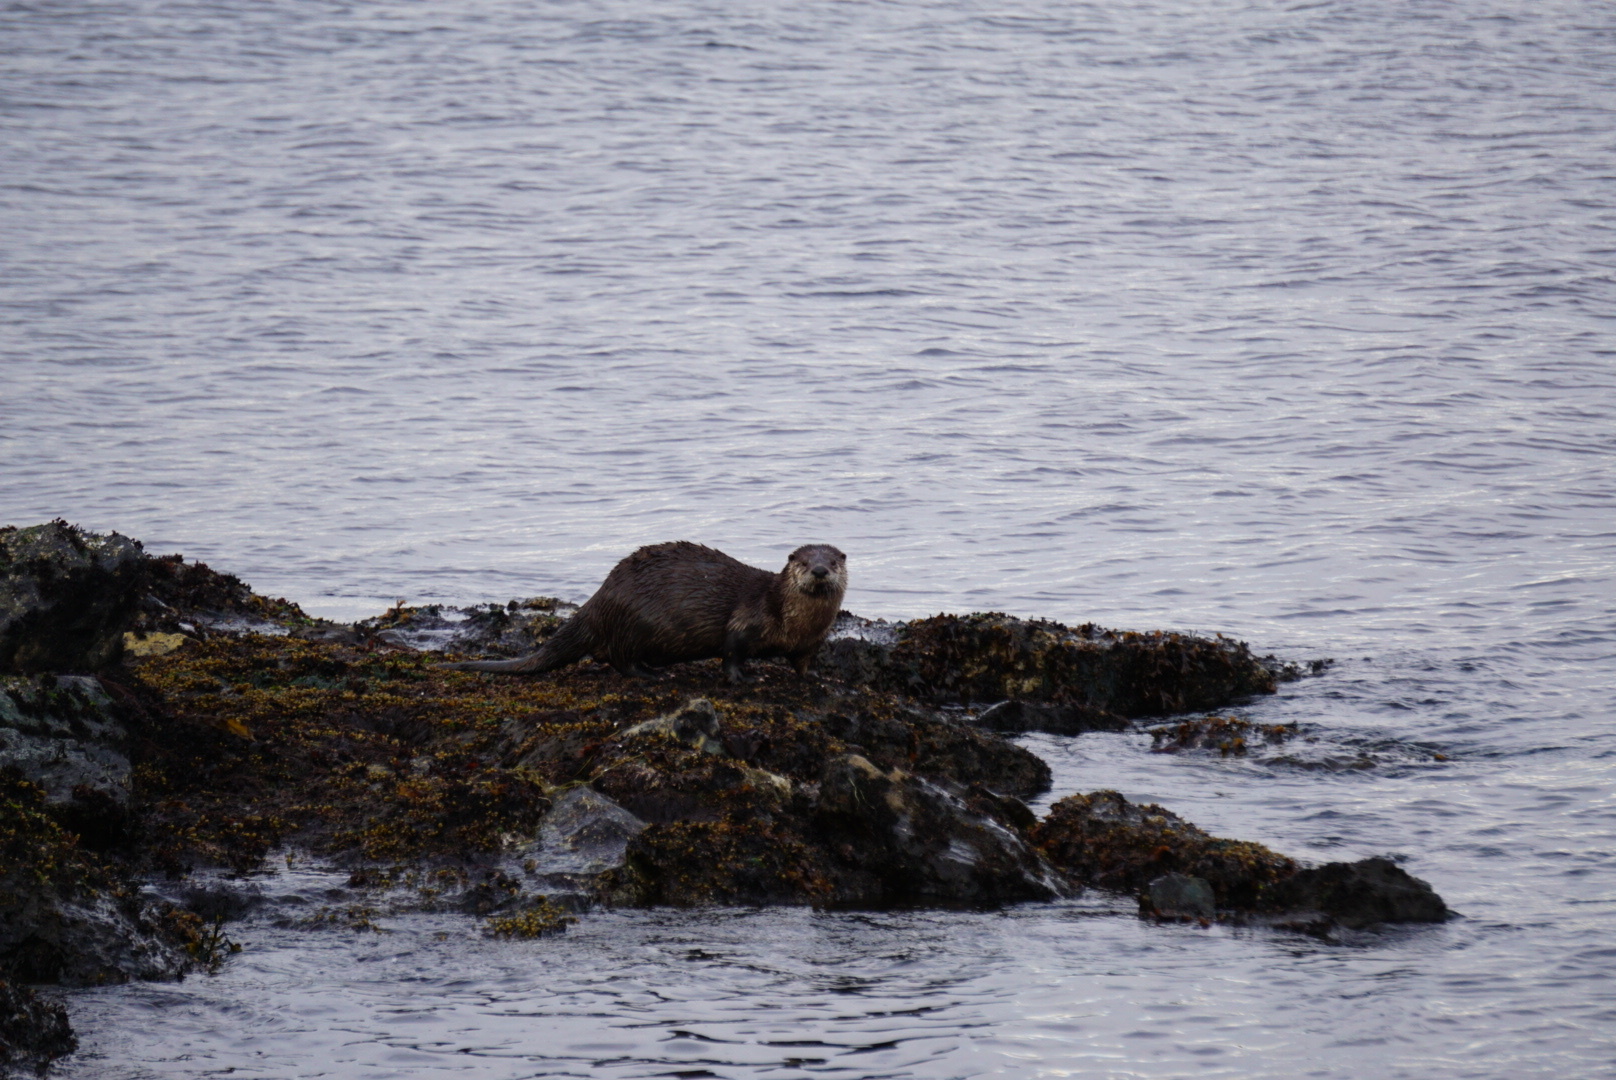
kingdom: Animalia
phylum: Chordata
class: Mammalia
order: Carnivora
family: Mustelidae
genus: Lontra
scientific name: Lontra canadensis
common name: North american river otter
